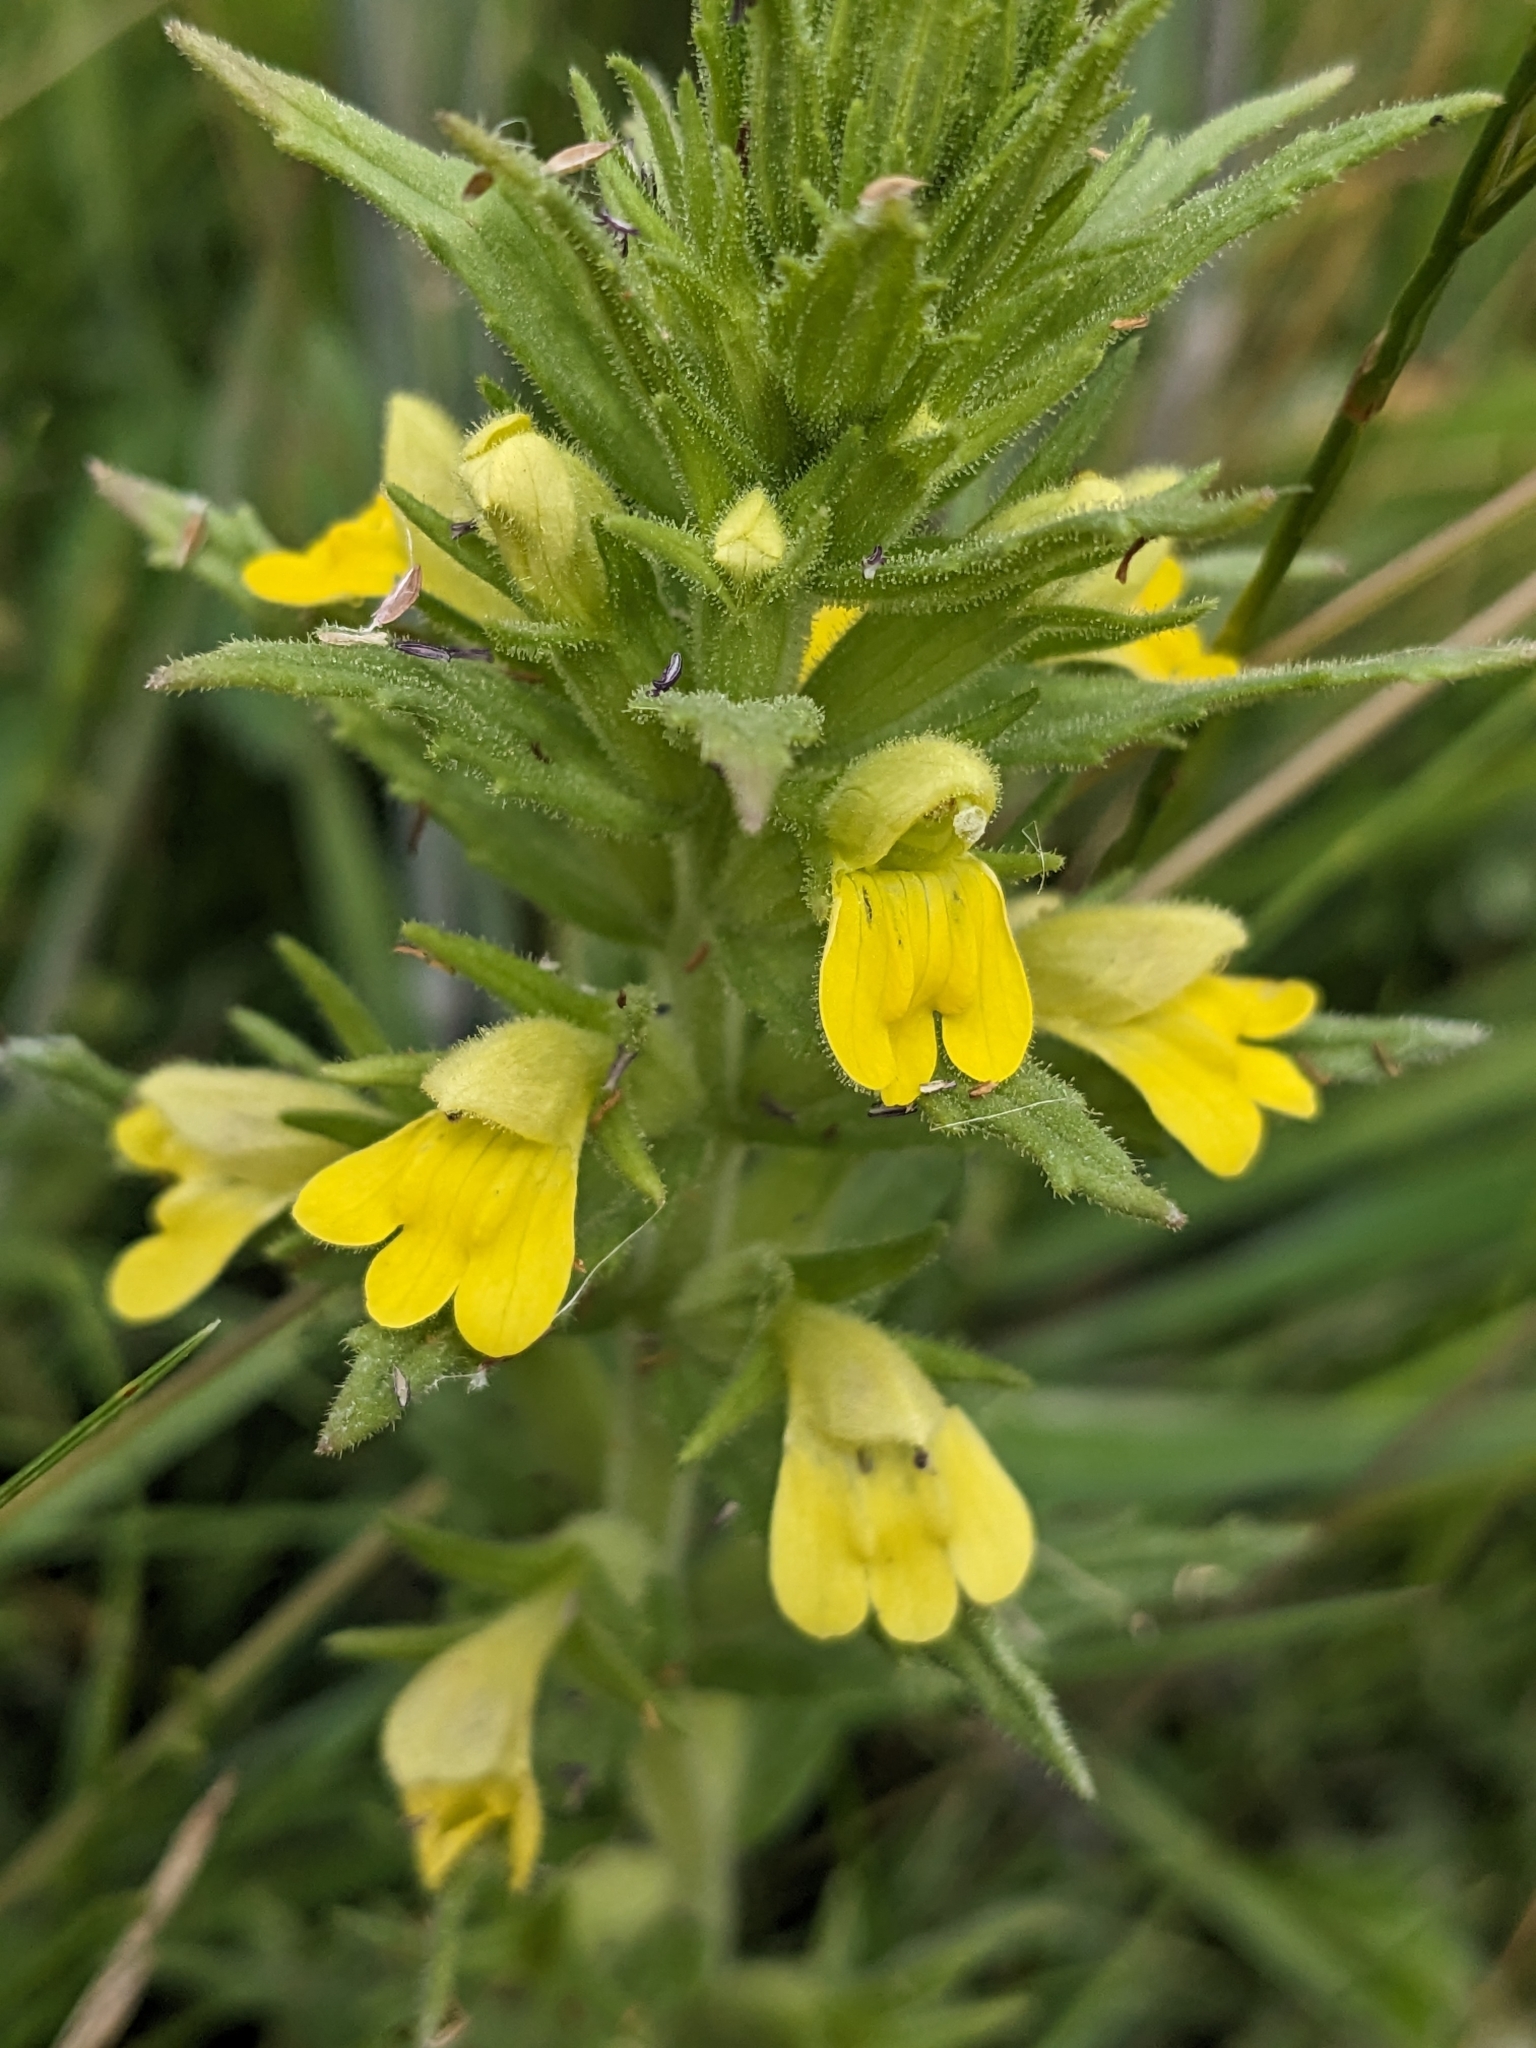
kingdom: Plantae
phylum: Tracheophyta
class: Magnoliopsida
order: Lamiales
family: Orobanchaceae
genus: Bellardia
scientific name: Bellardia viscosa
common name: Sticky parentucellia
